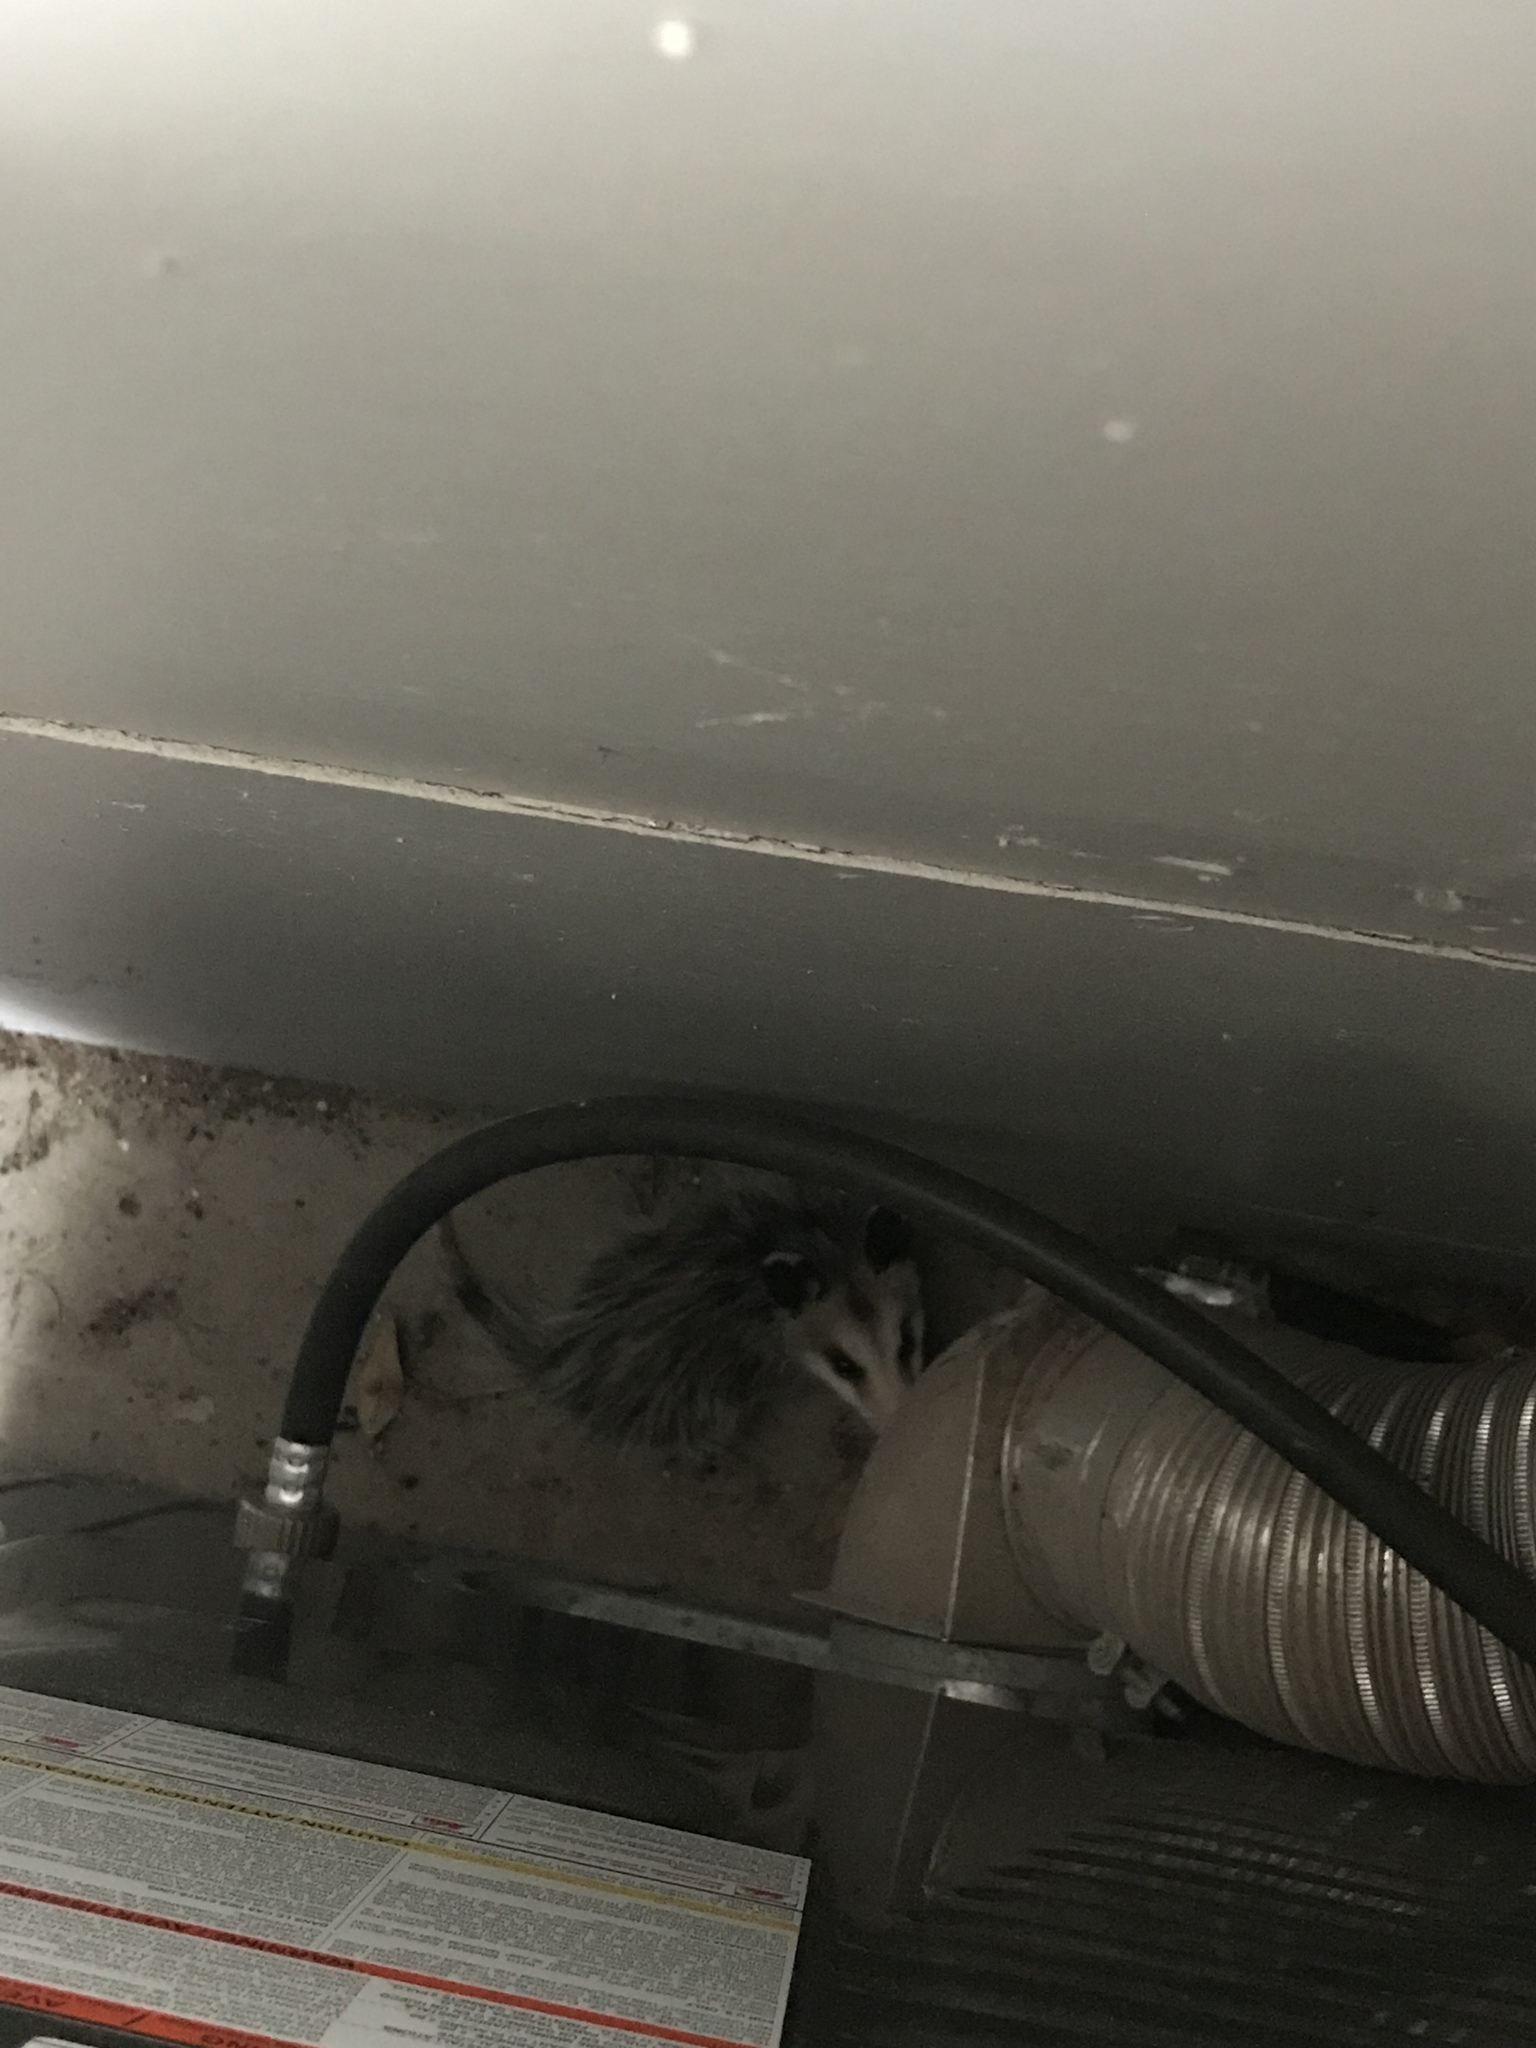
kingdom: Animalia
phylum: Chordata
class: Mammalia
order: Didelphimorphia
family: Didelphidae
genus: Didelphis
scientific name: Didelphis virginiana
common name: Virginia opossum
